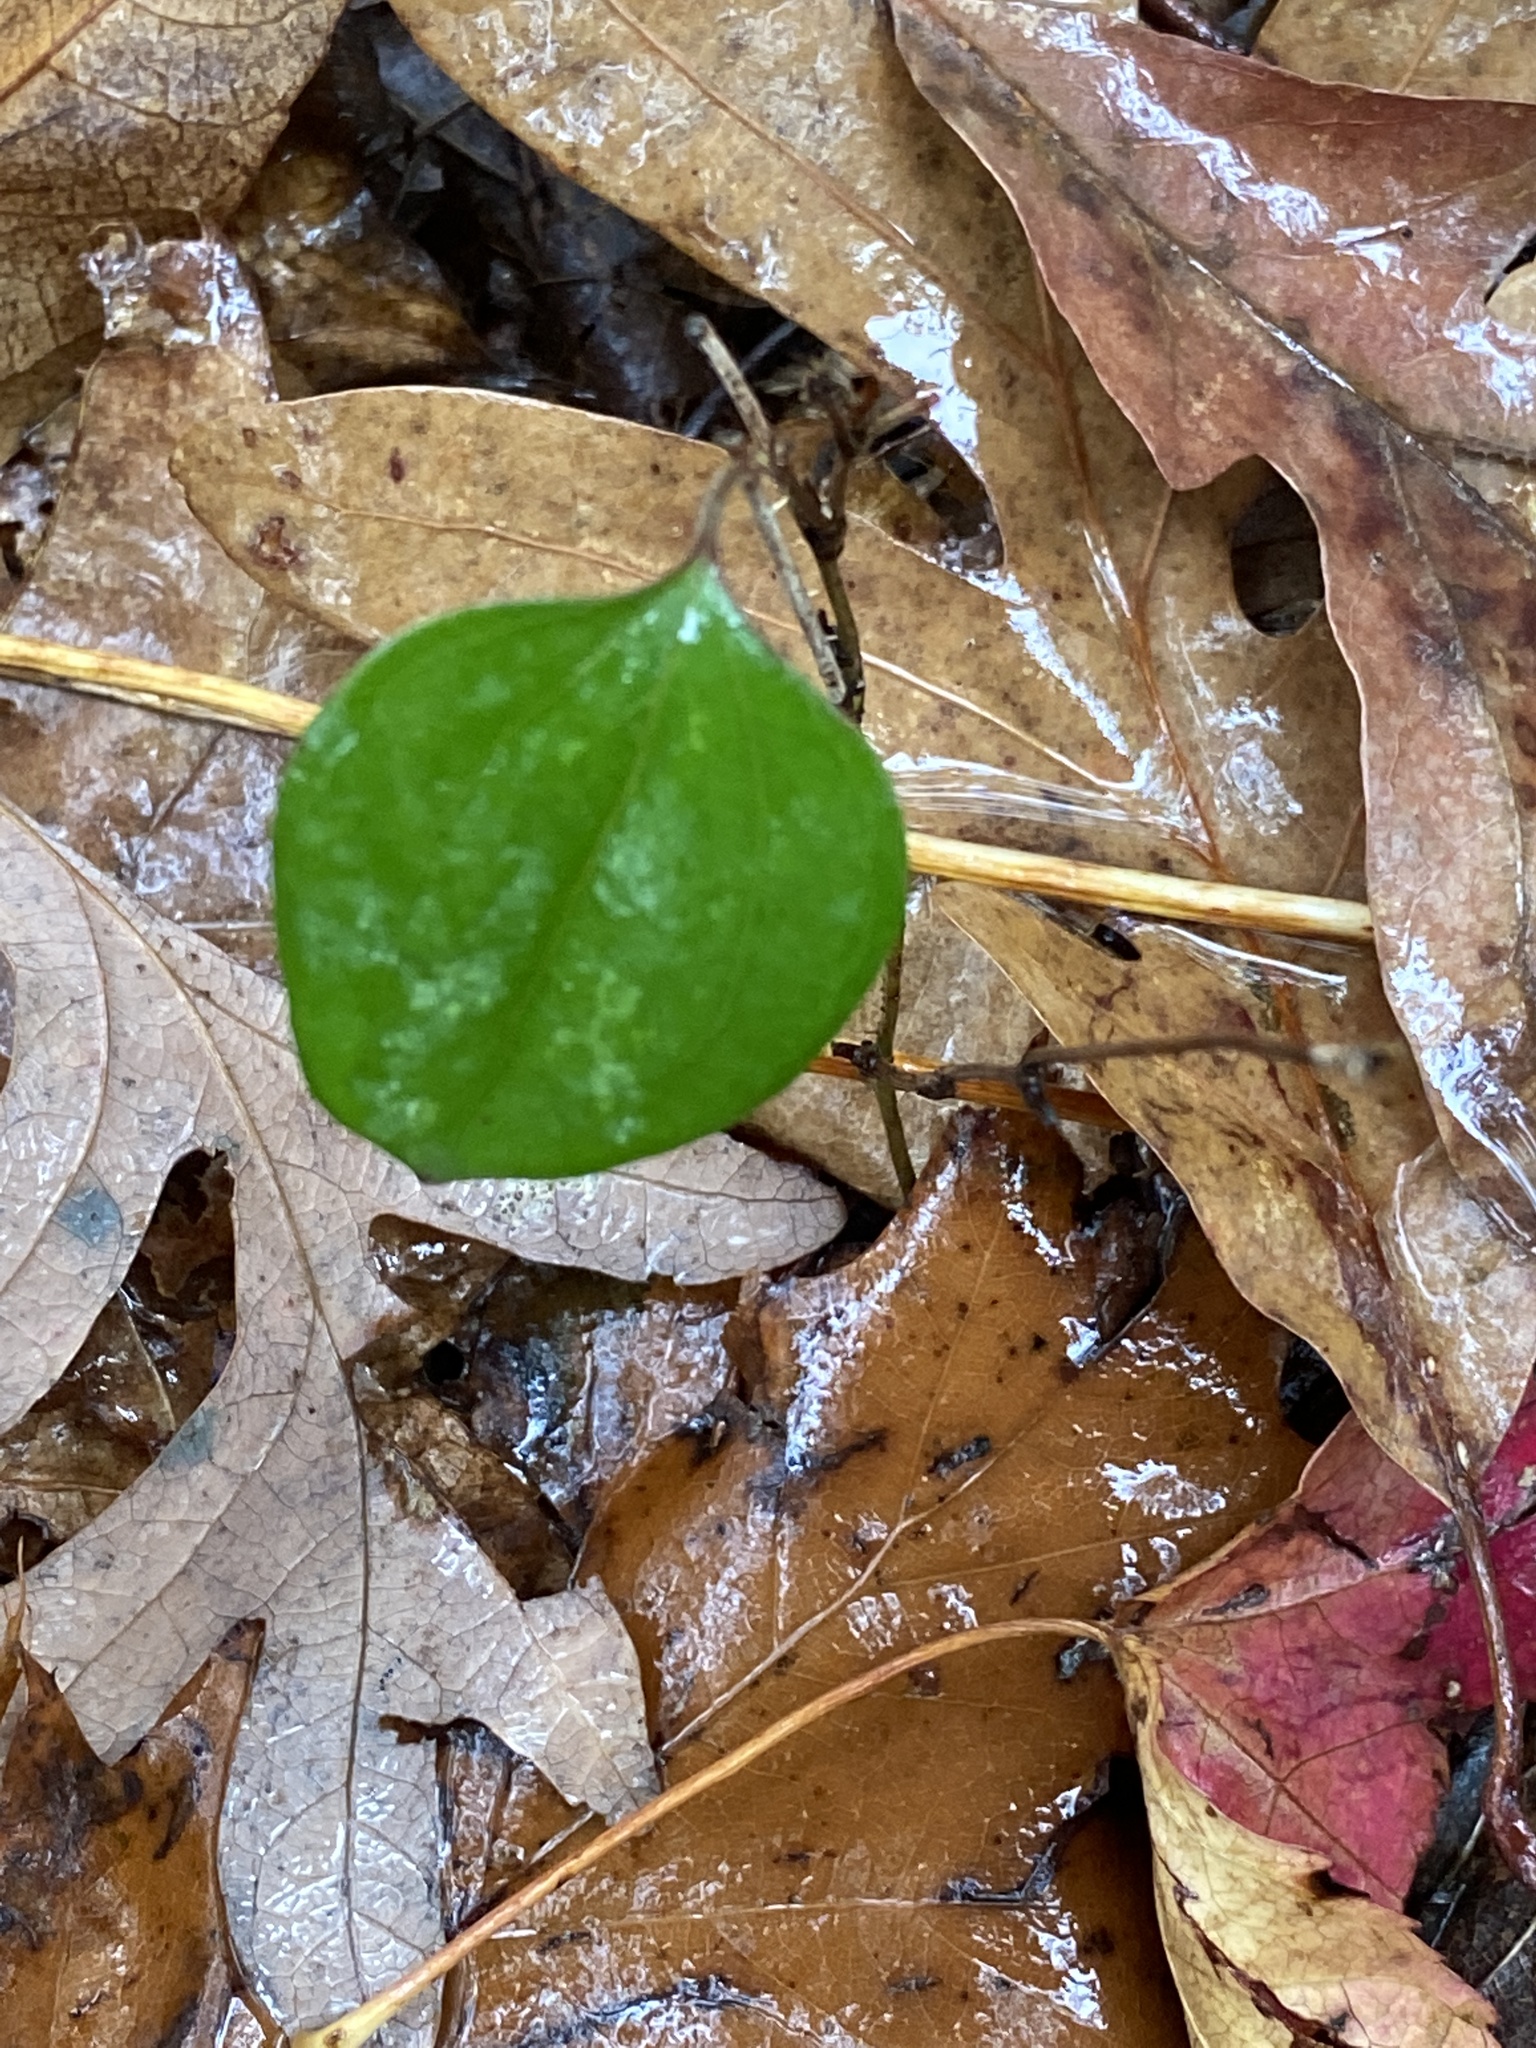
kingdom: Plantae
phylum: Tracheophyta
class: Liliopsida
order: Liliales
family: Smilacaceae
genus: Smilax
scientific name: Smilax glauca
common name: Cat greenbrier
